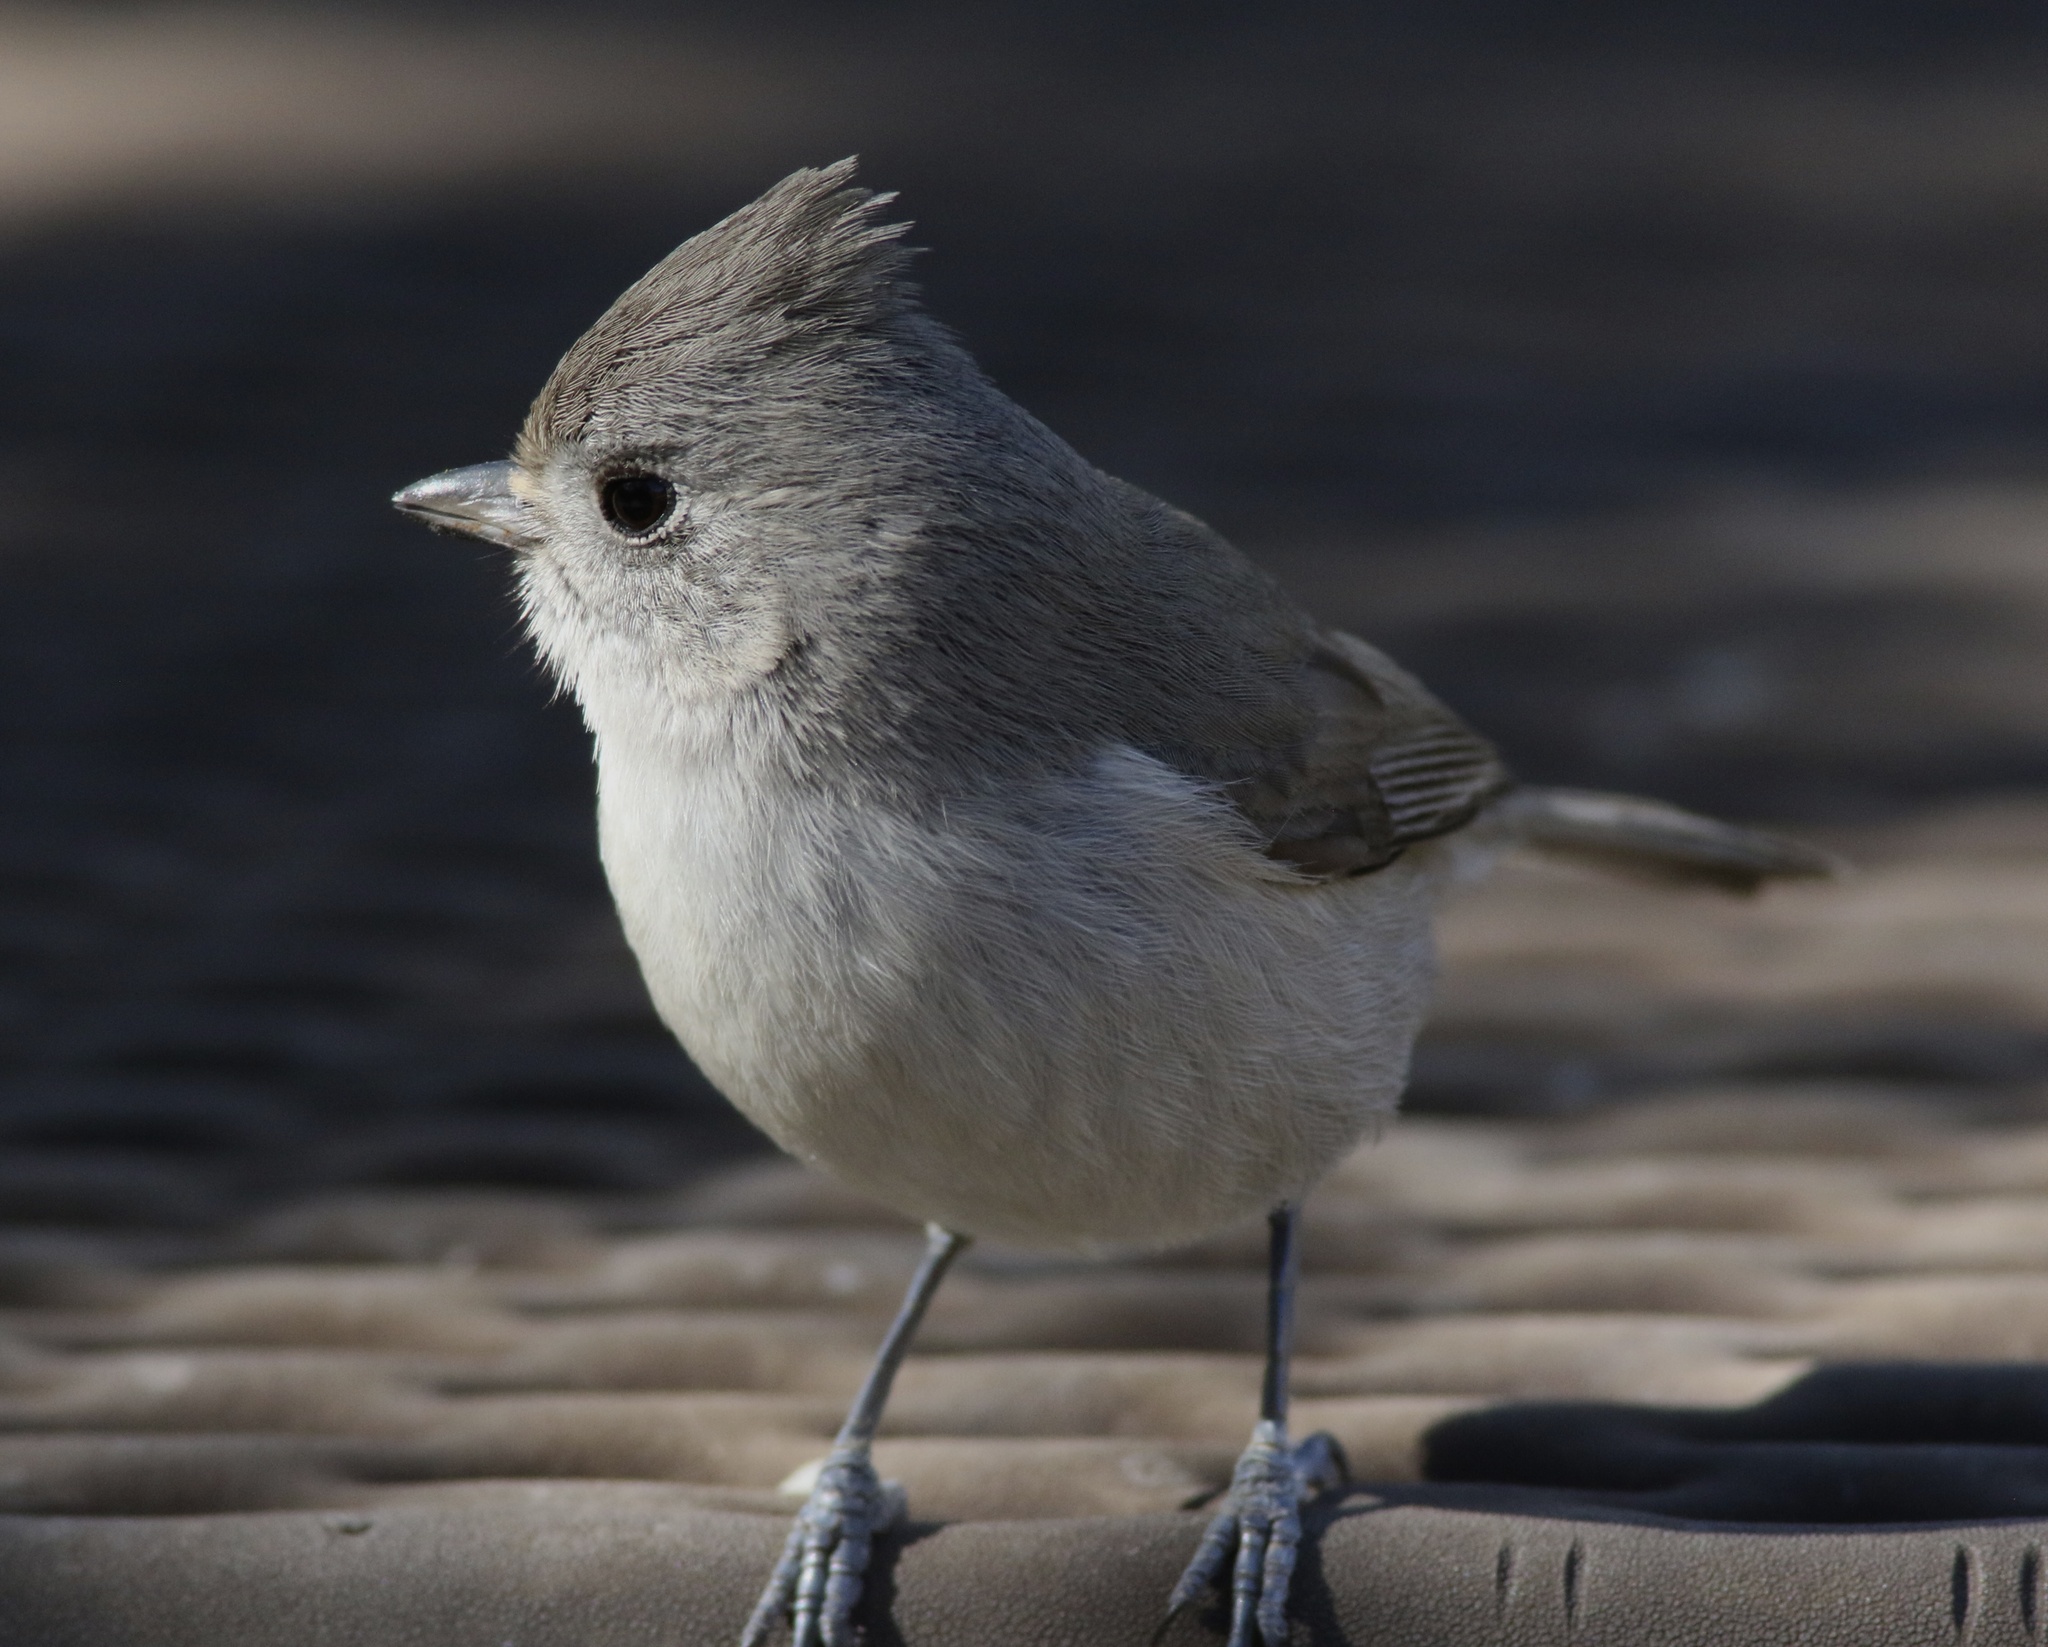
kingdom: Animalia
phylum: Chordata
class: Aves
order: Passeriformes
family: Paridae
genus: Baeolophus
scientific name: Baeolophus inornatus
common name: Oak titmouse
